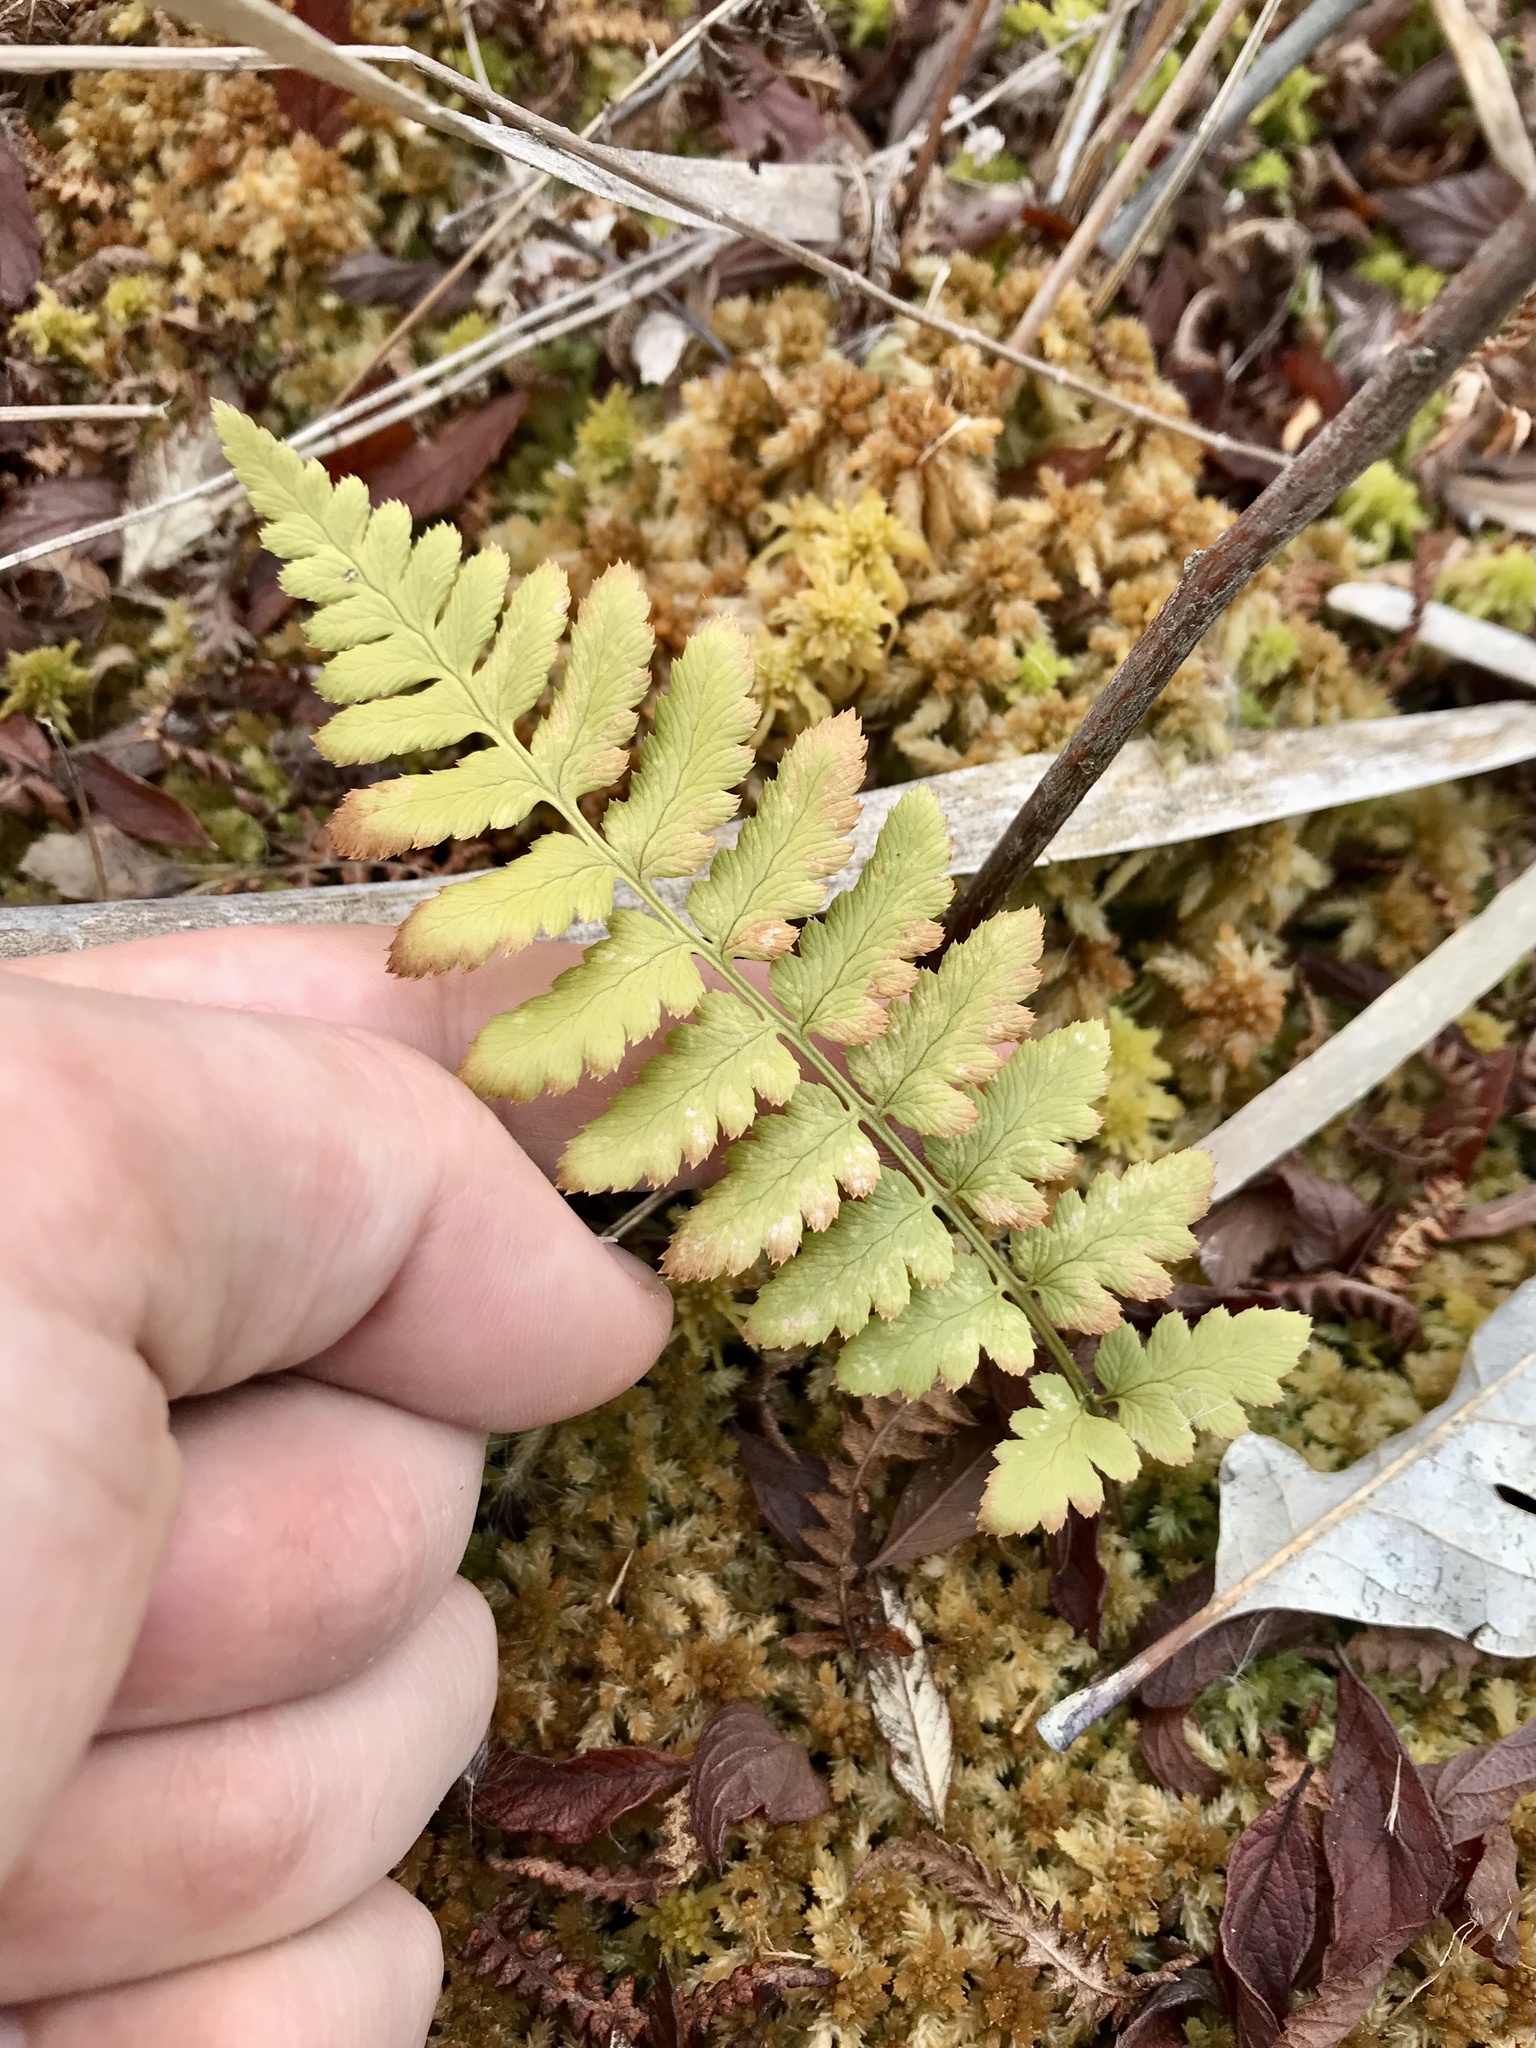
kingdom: Plantae
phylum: Tracheophyta
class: Polypodiopsida
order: Polypodiales
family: Dryopteridaceae
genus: Dryopteris
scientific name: Dryopteris cristata
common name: Crested wood fern
